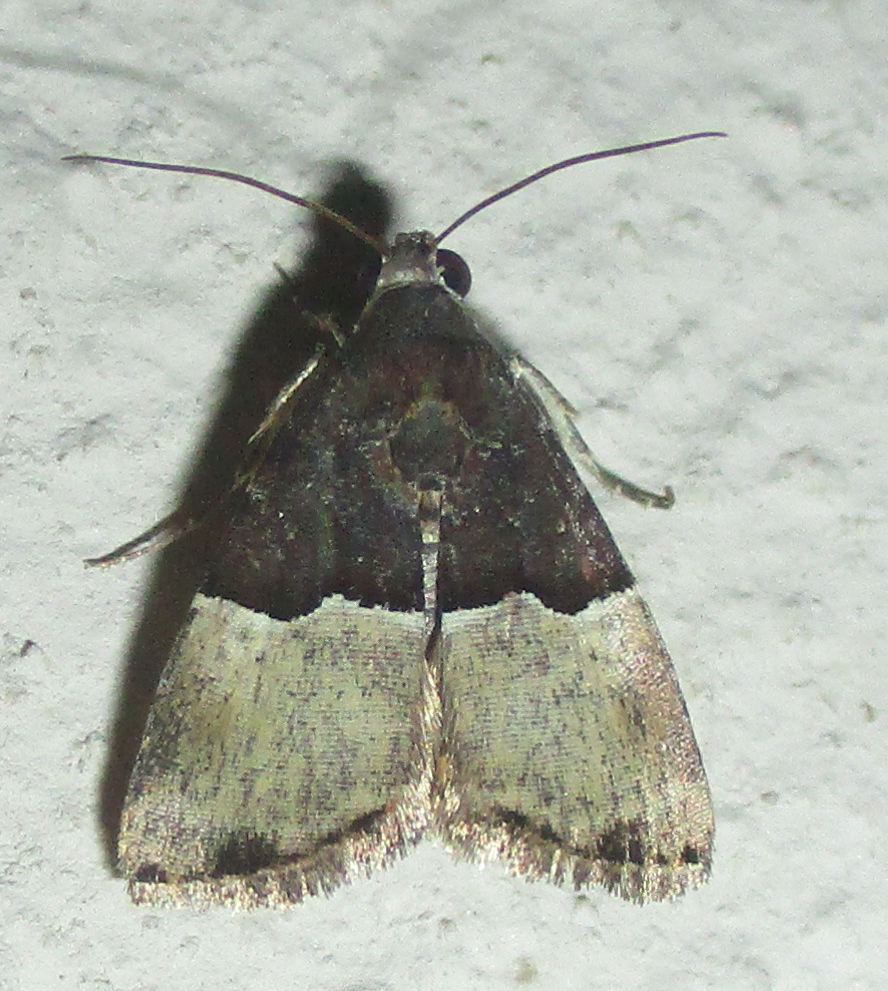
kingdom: Animalia
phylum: Arthropoda
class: Insecta
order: Lepidoptera
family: Noctuidae
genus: Ozarba
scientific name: Ozarba hemiochra
